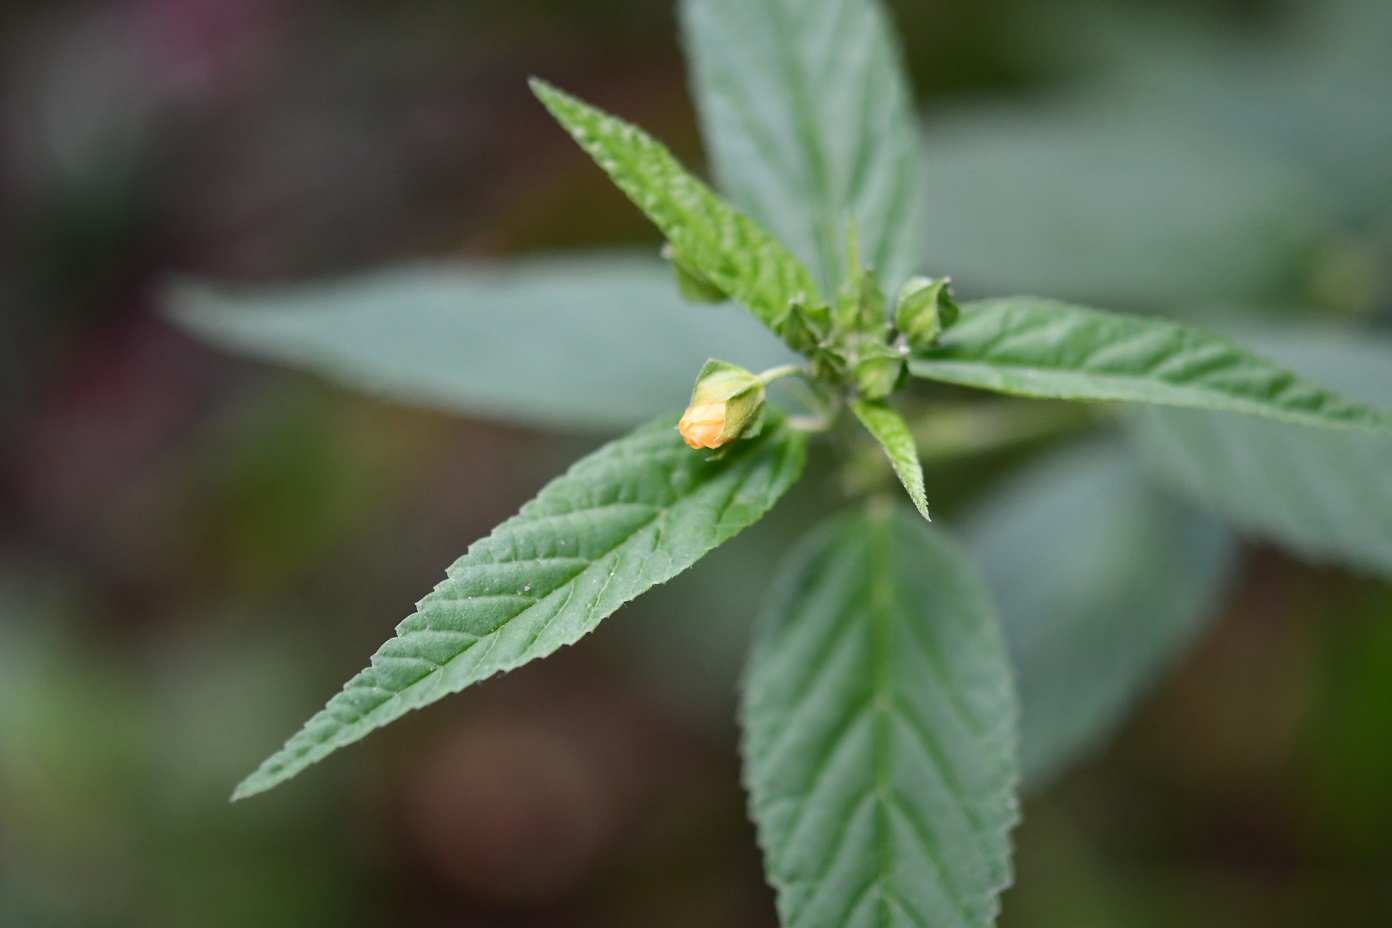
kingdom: Plantae
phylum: Tracheophyta
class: Magnoliopsida
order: Malvales
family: Malvaceae
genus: Sida
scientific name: Sida acuta
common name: Common wireweed
